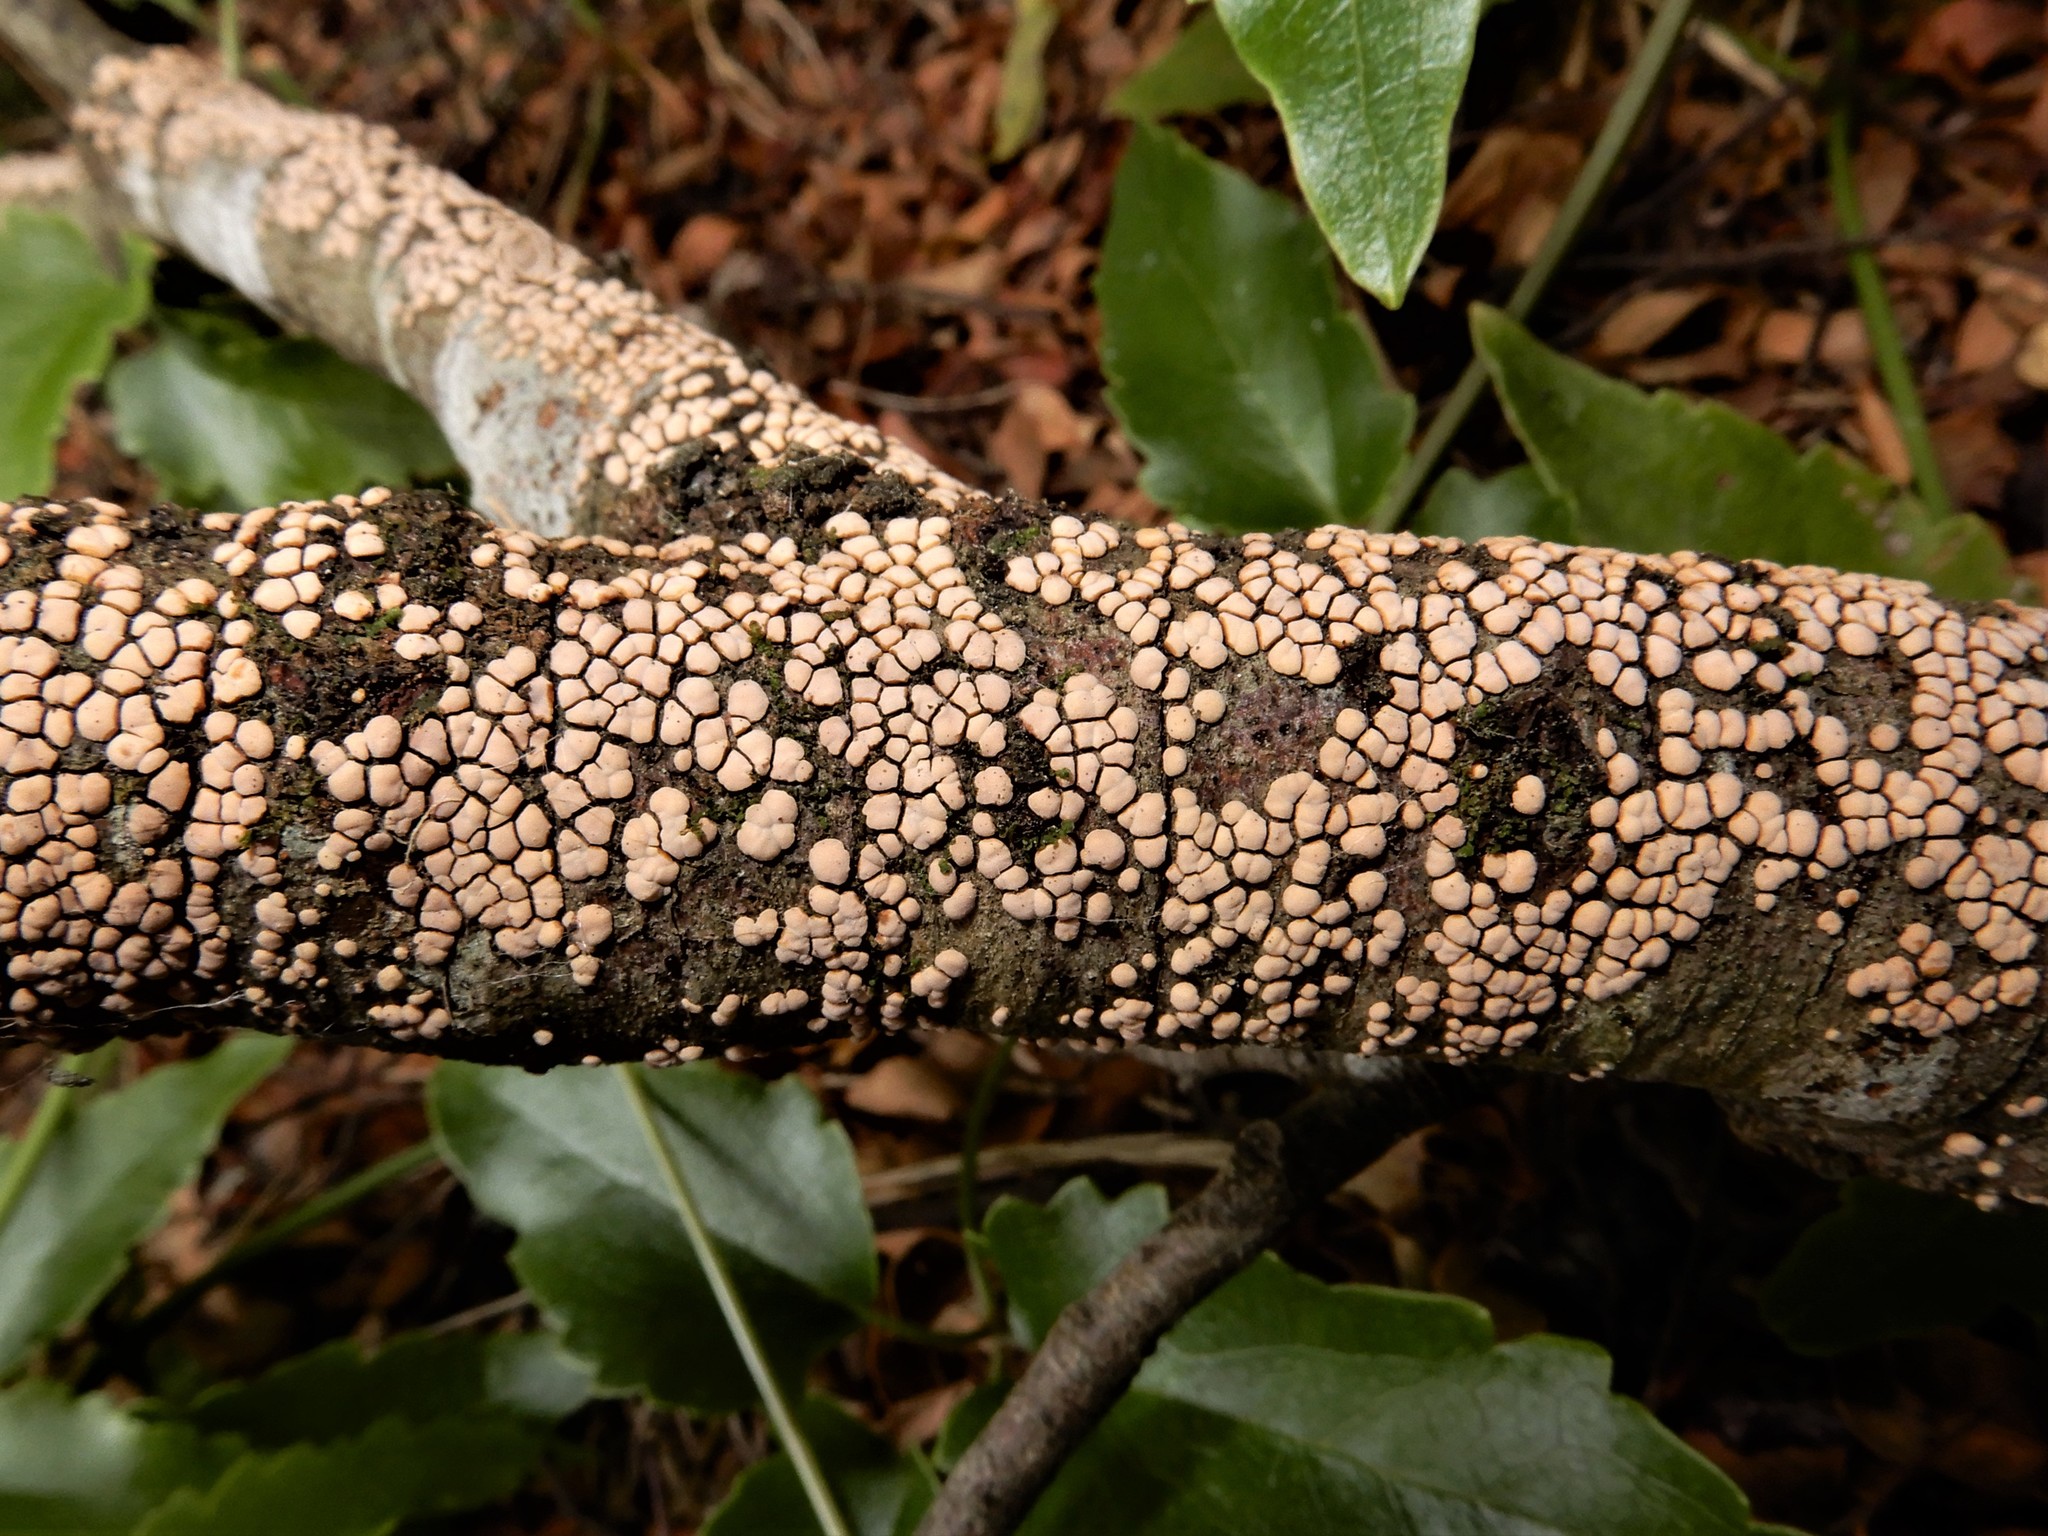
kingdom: Fungi
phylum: Basidiomycota
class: Agaricomycetes
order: Russulales
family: Stereaceae
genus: Aleurodiscus
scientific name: Aleurodiscus berggrenii
